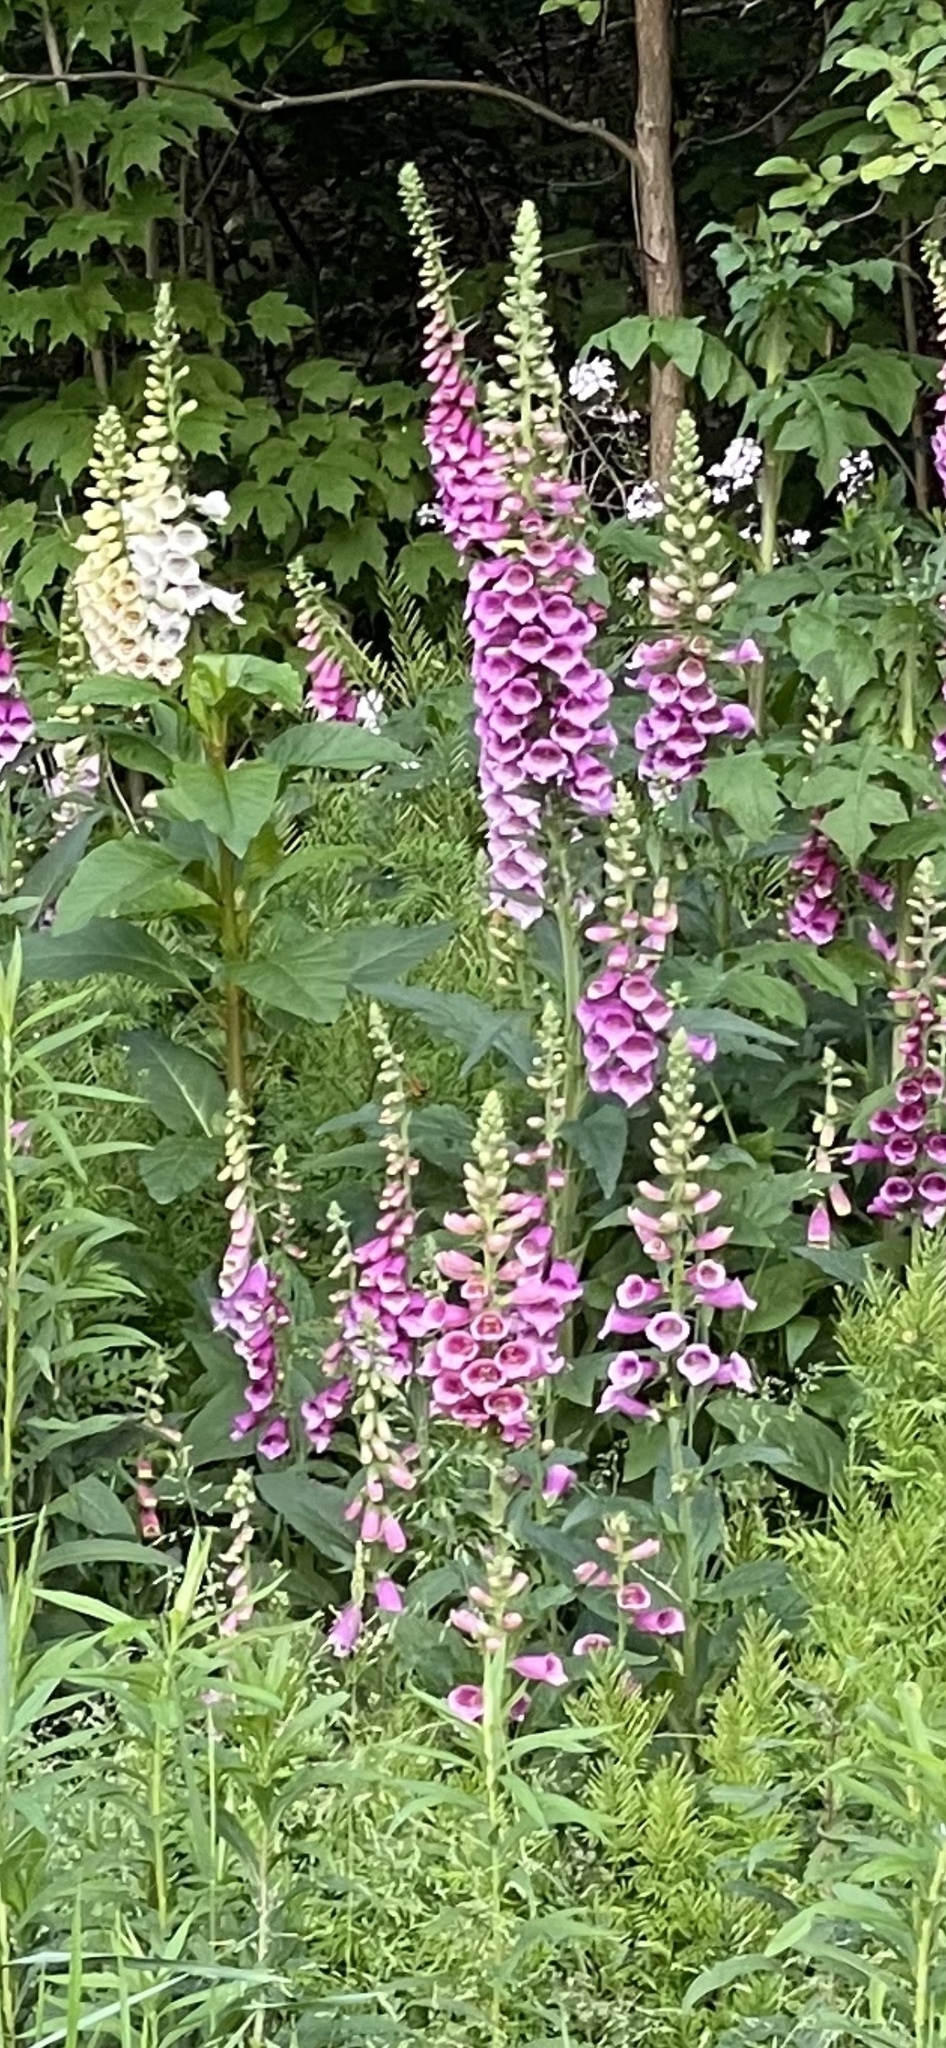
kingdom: Plantae
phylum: Tracheophyta
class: Magnoliopsida
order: Lamiales
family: Plantaginaceae
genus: Digitalis
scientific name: Digitalis purpurea
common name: Foxglove
